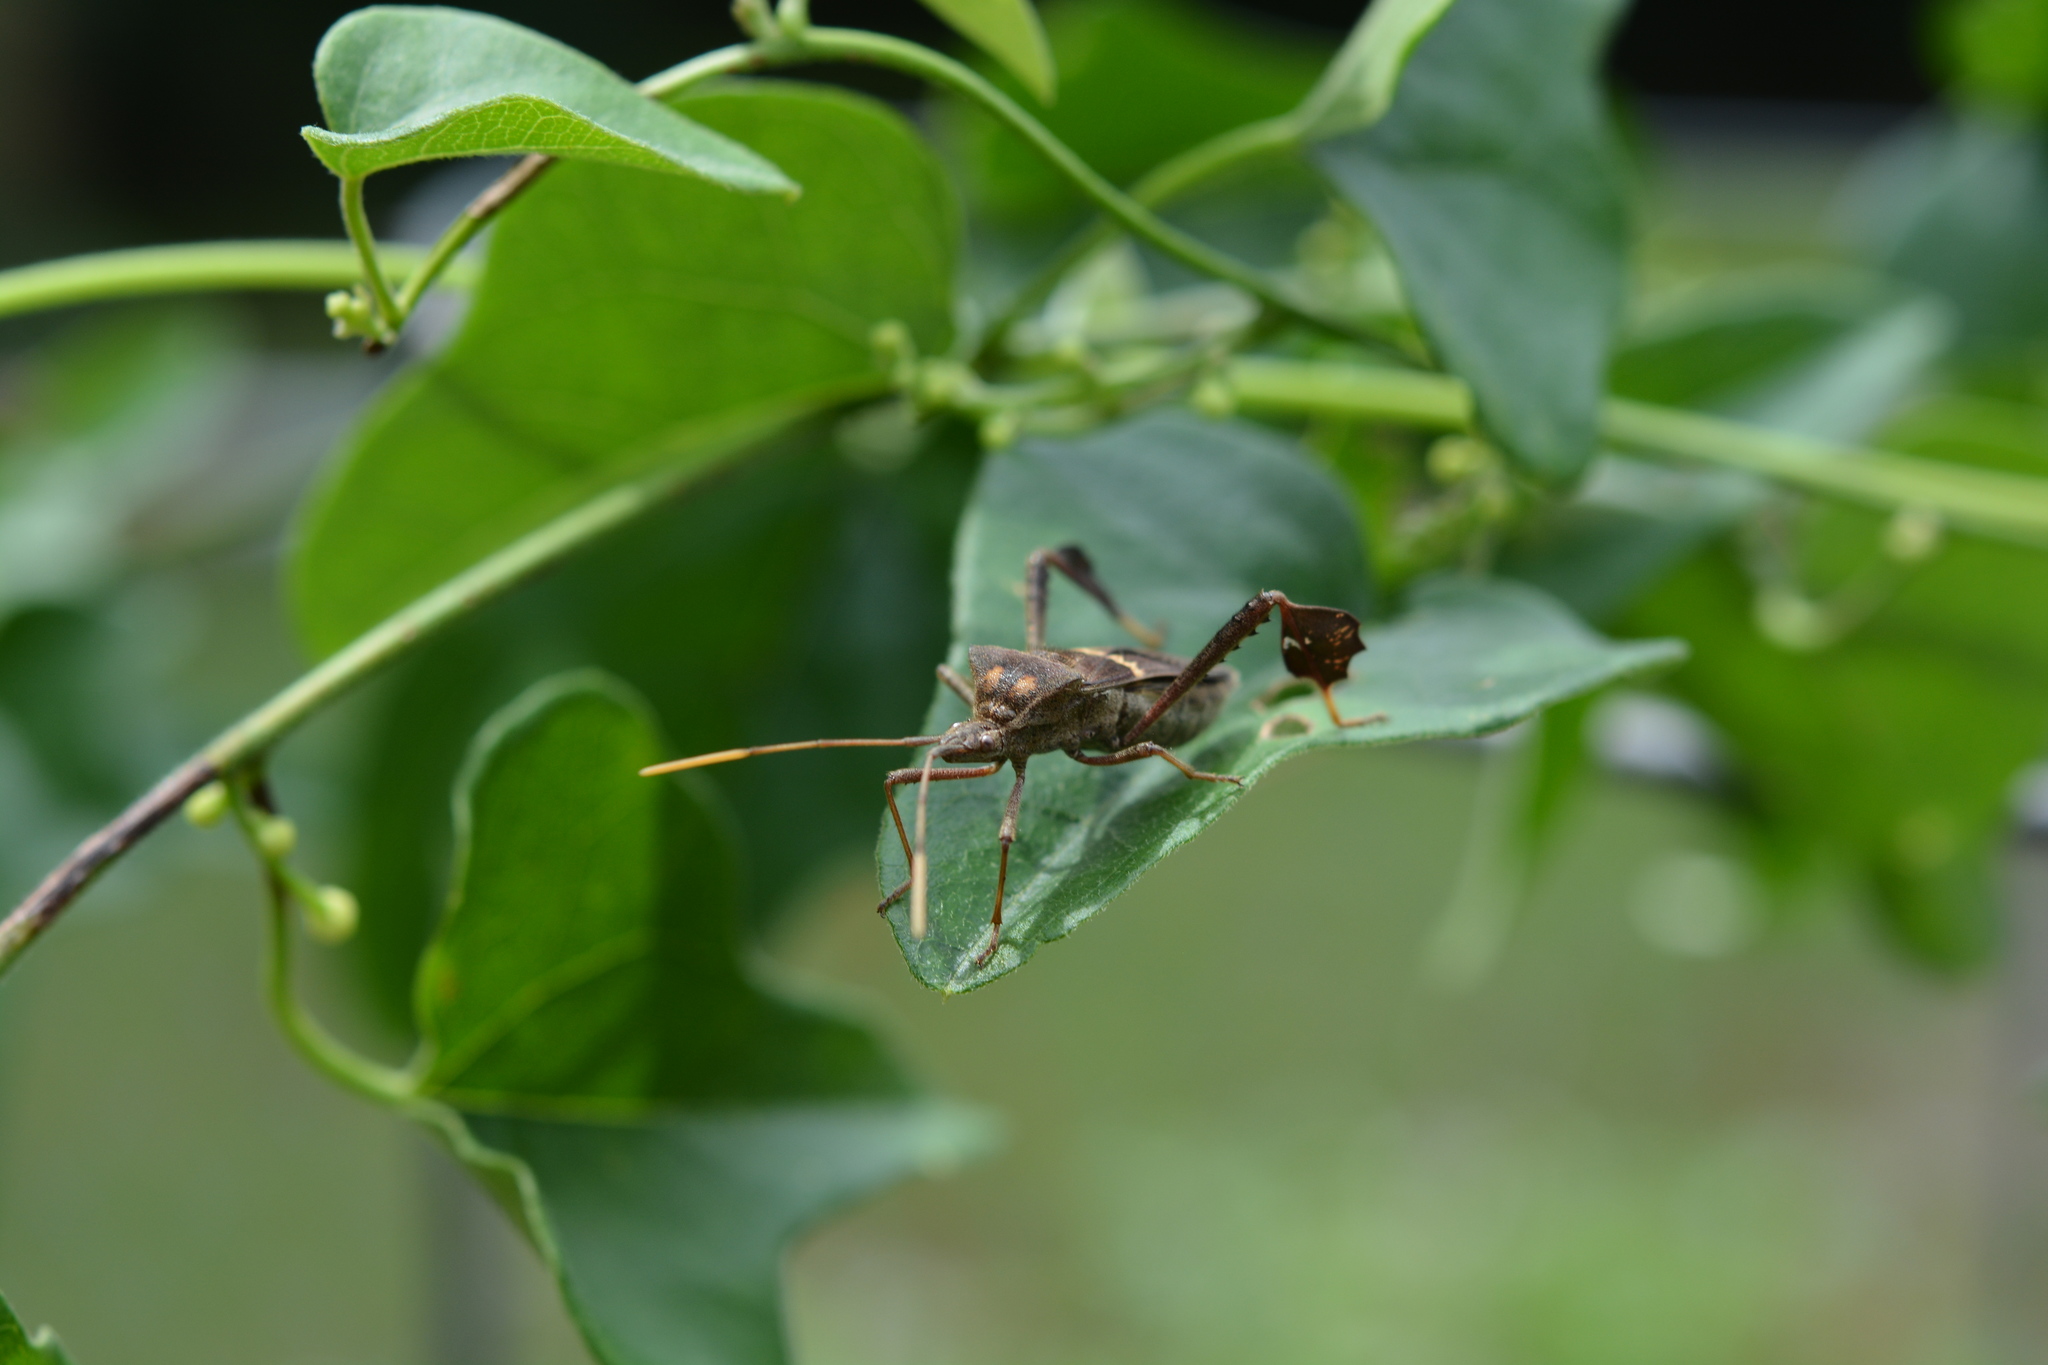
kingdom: Animalia
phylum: Arthropoda
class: Insecta
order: Hemiptera
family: Coreidae
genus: Leptoglossus
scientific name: Leptoglossus zonatus
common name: Large-legged bug
